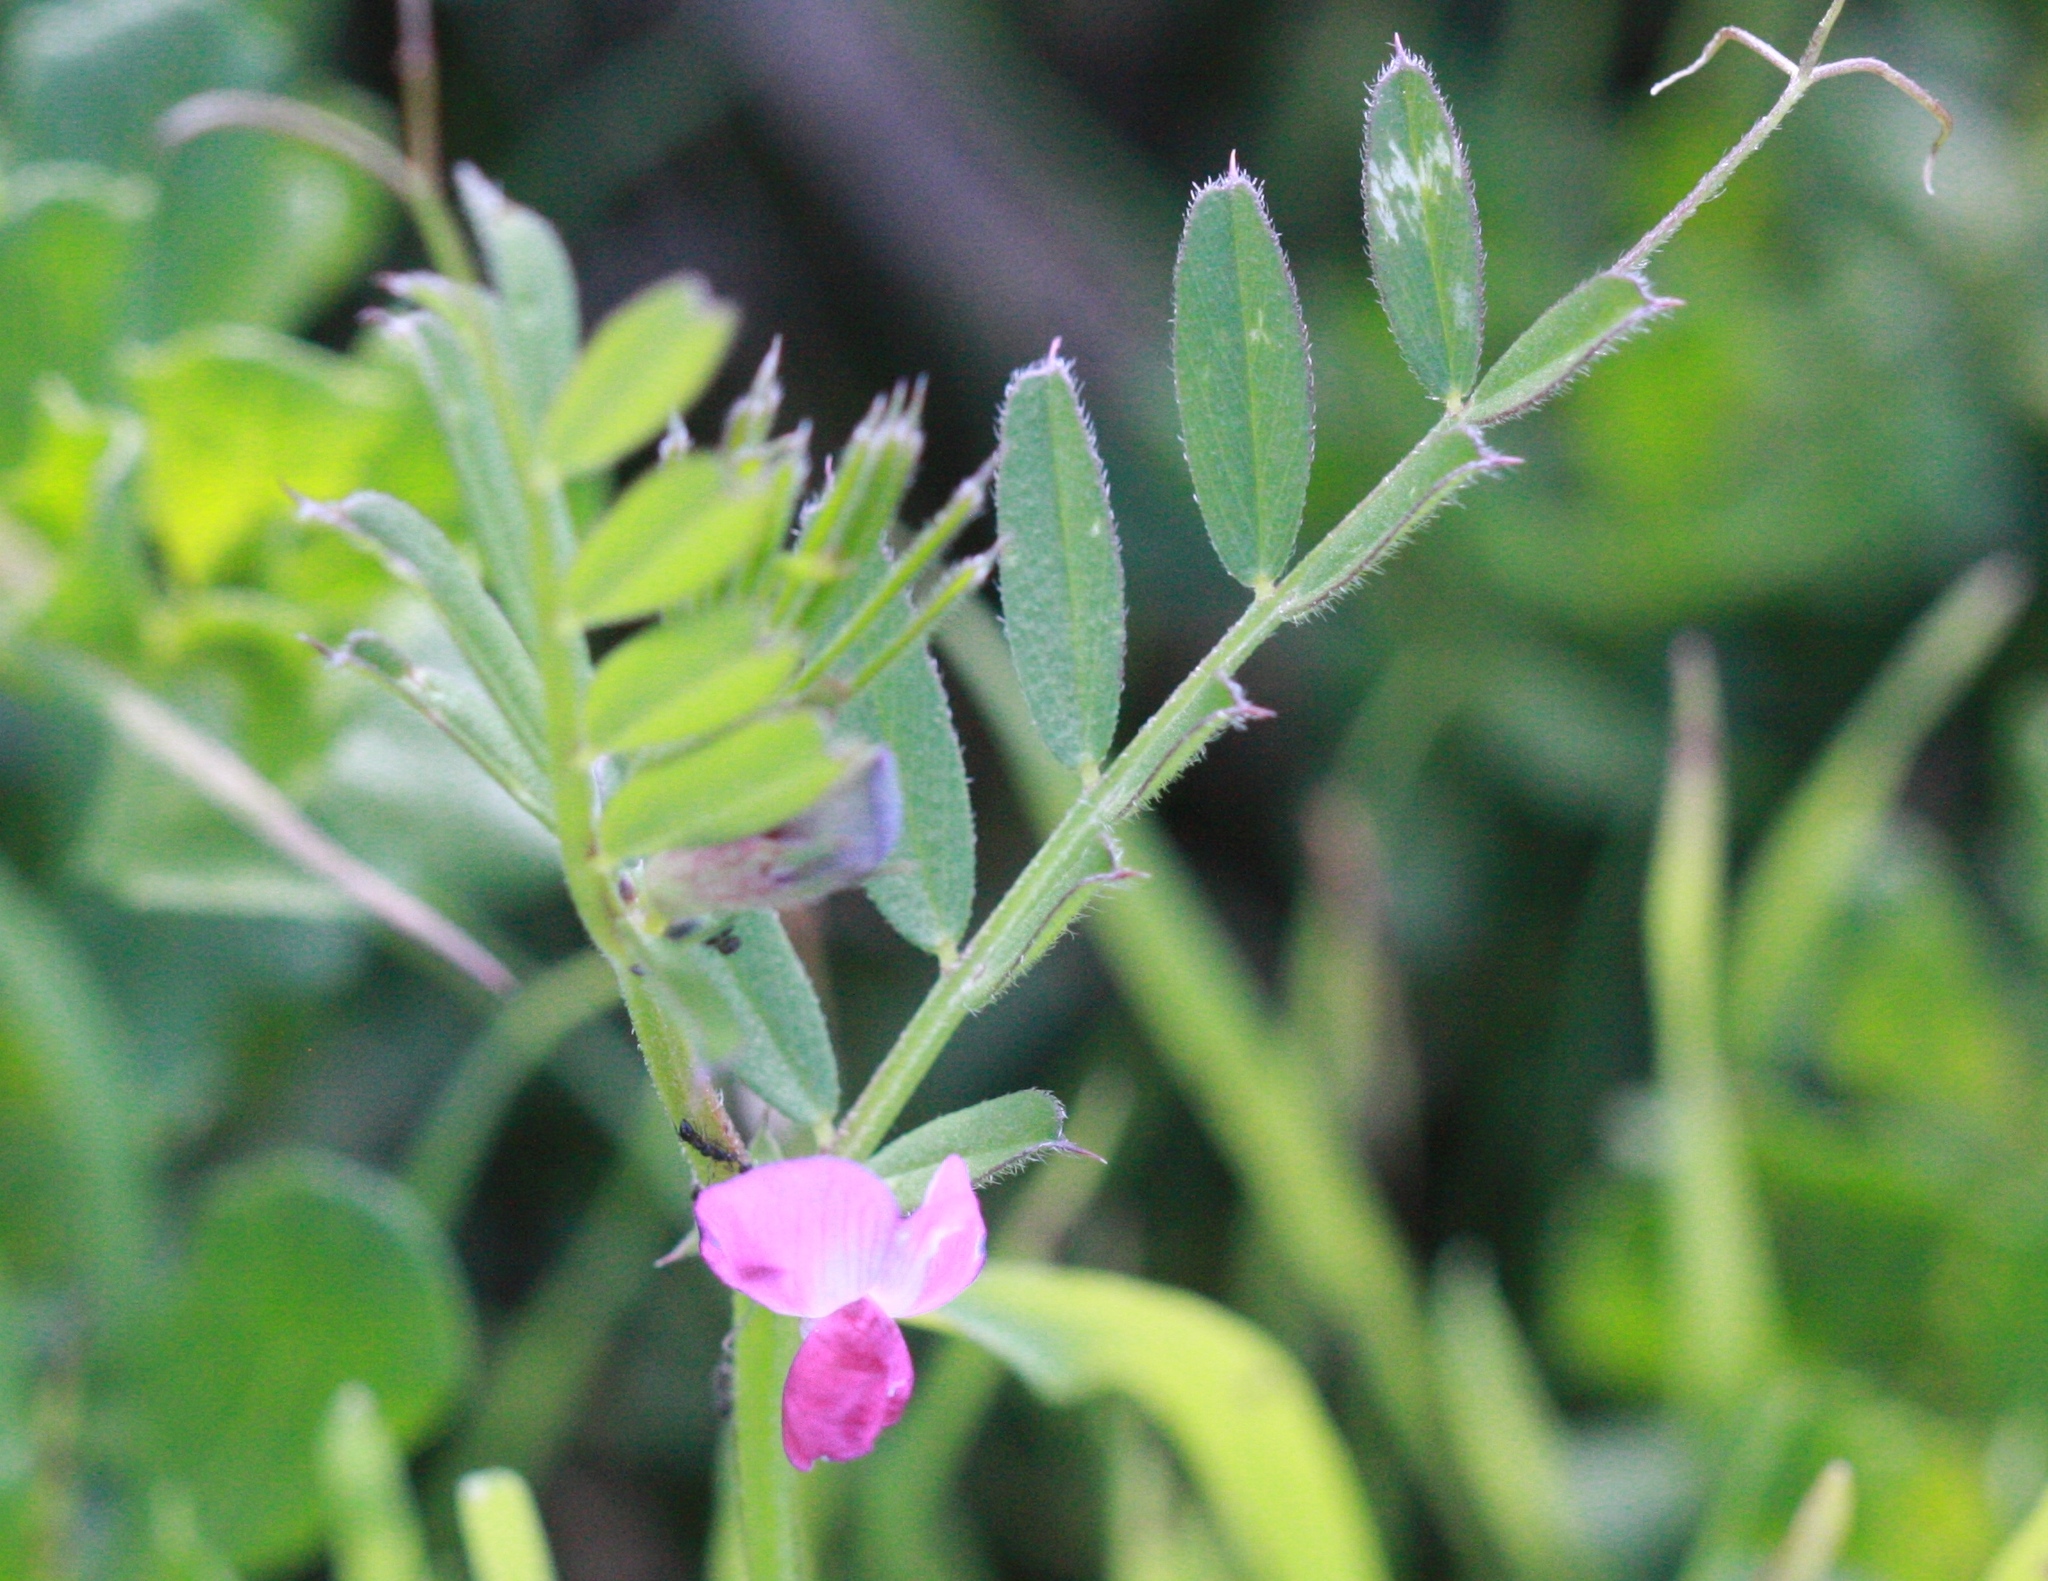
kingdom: Plantae
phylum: Tracheophyta
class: Magnoliopsida
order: Fabales
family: Fabaceae
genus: Vicia
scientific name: Vicia sativa
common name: Garden vetch
